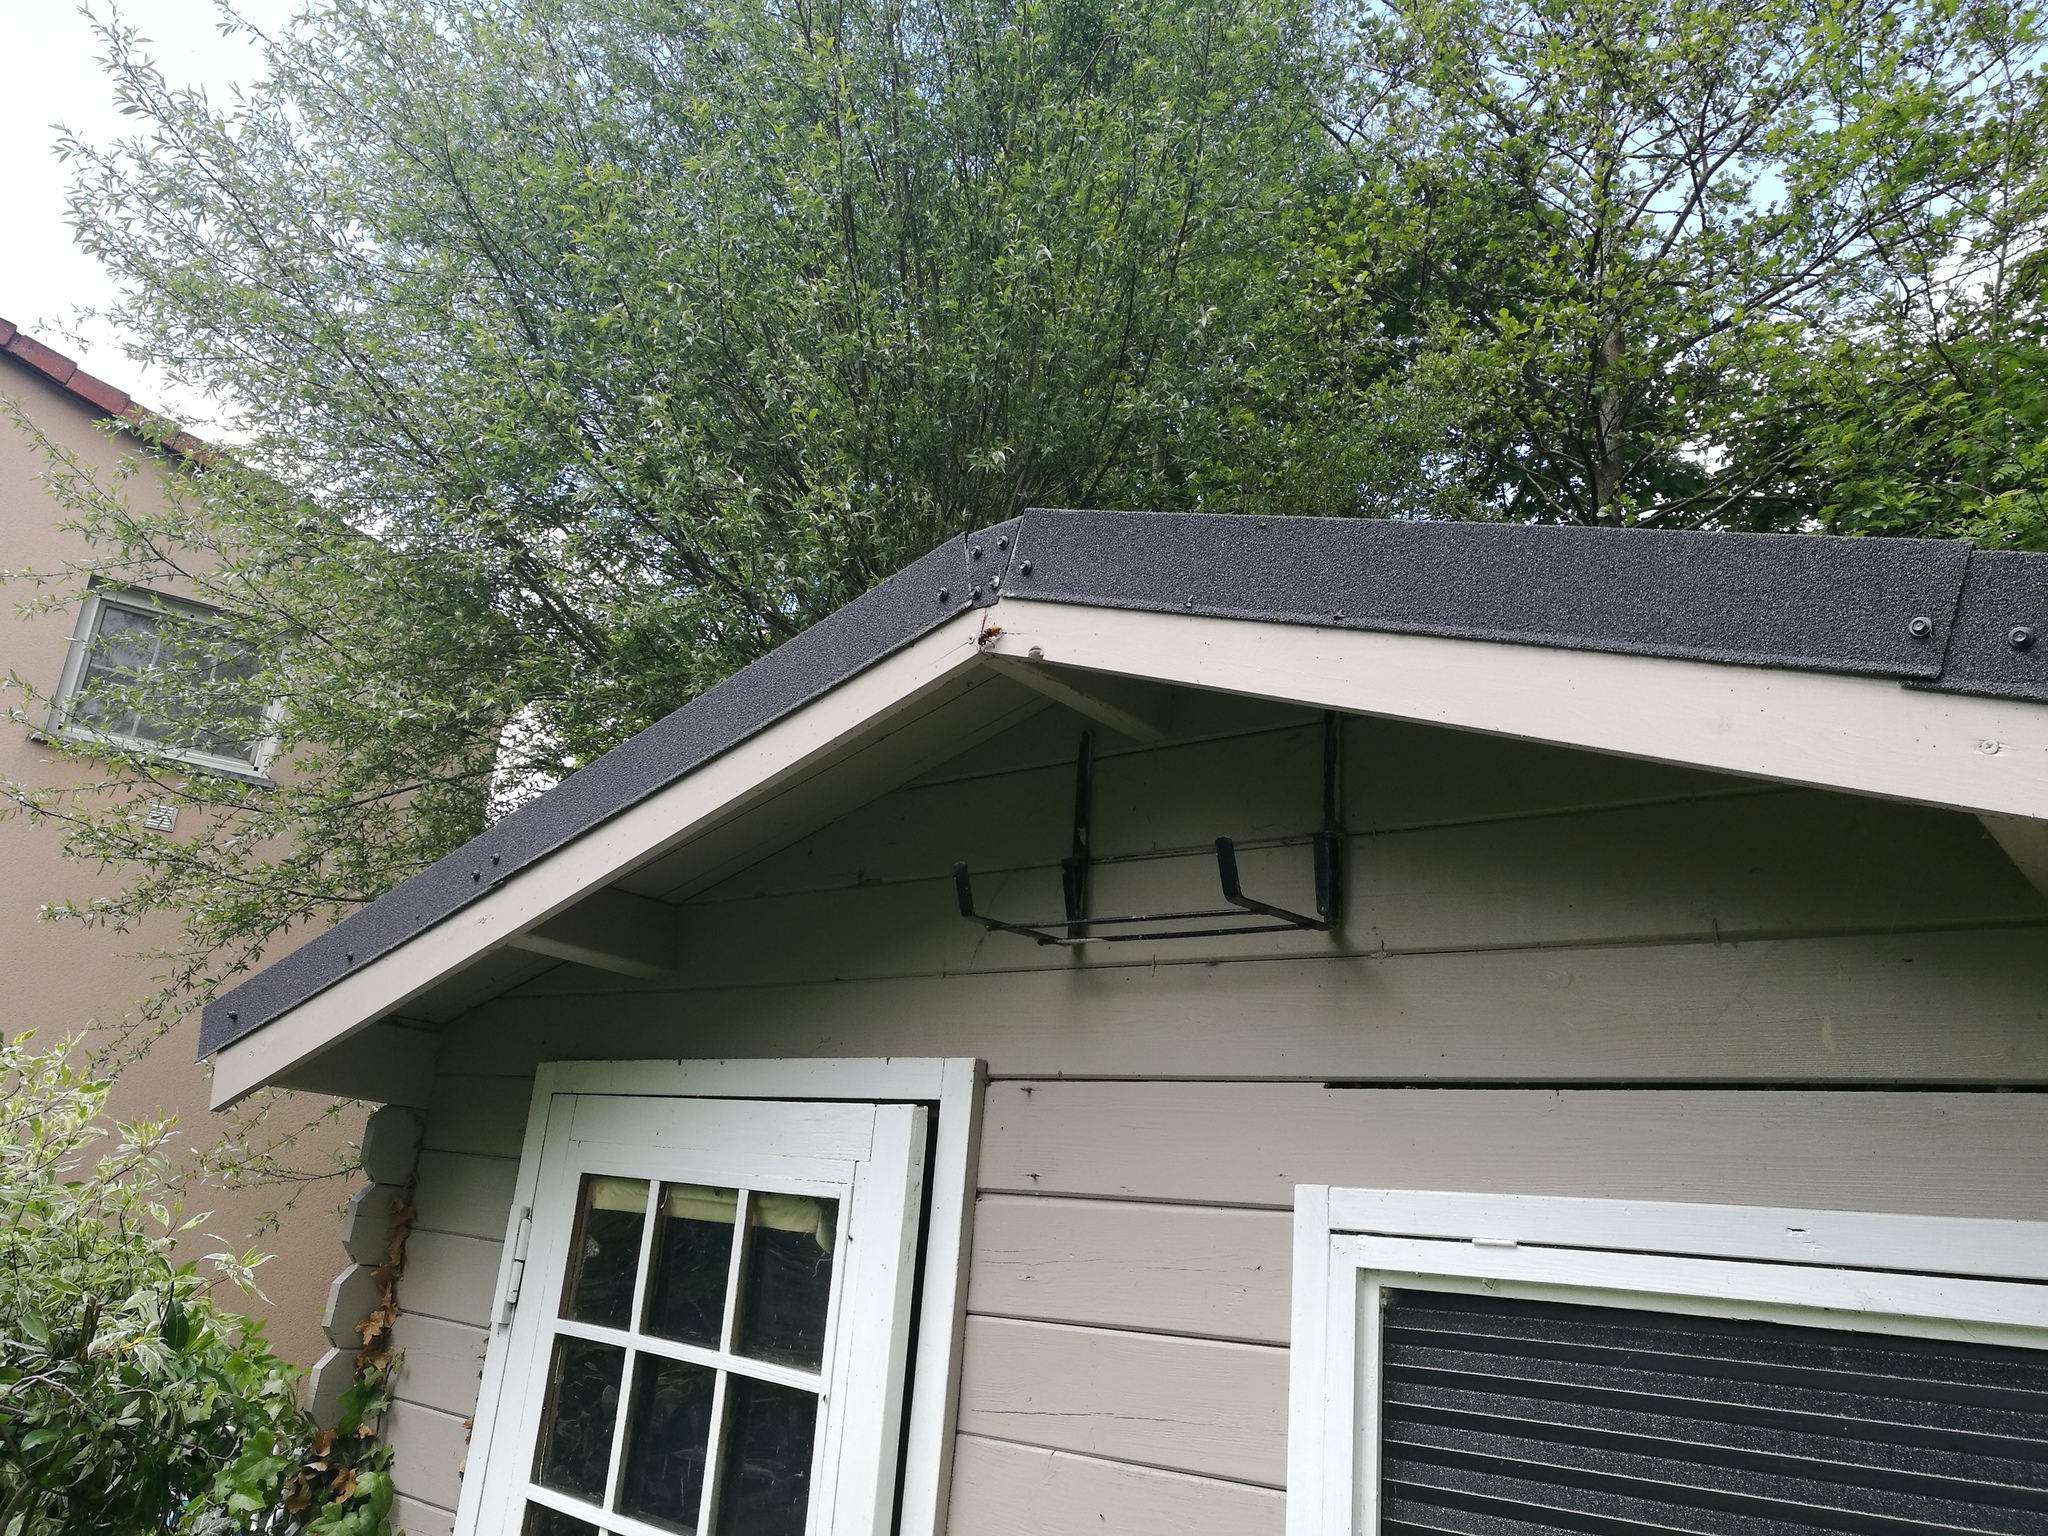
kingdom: Animalia
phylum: Arthropoda
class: Insecta
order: Hymenoptera
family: Vespidae
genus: Vespa
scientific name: Vespa crabro
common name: Hornet
